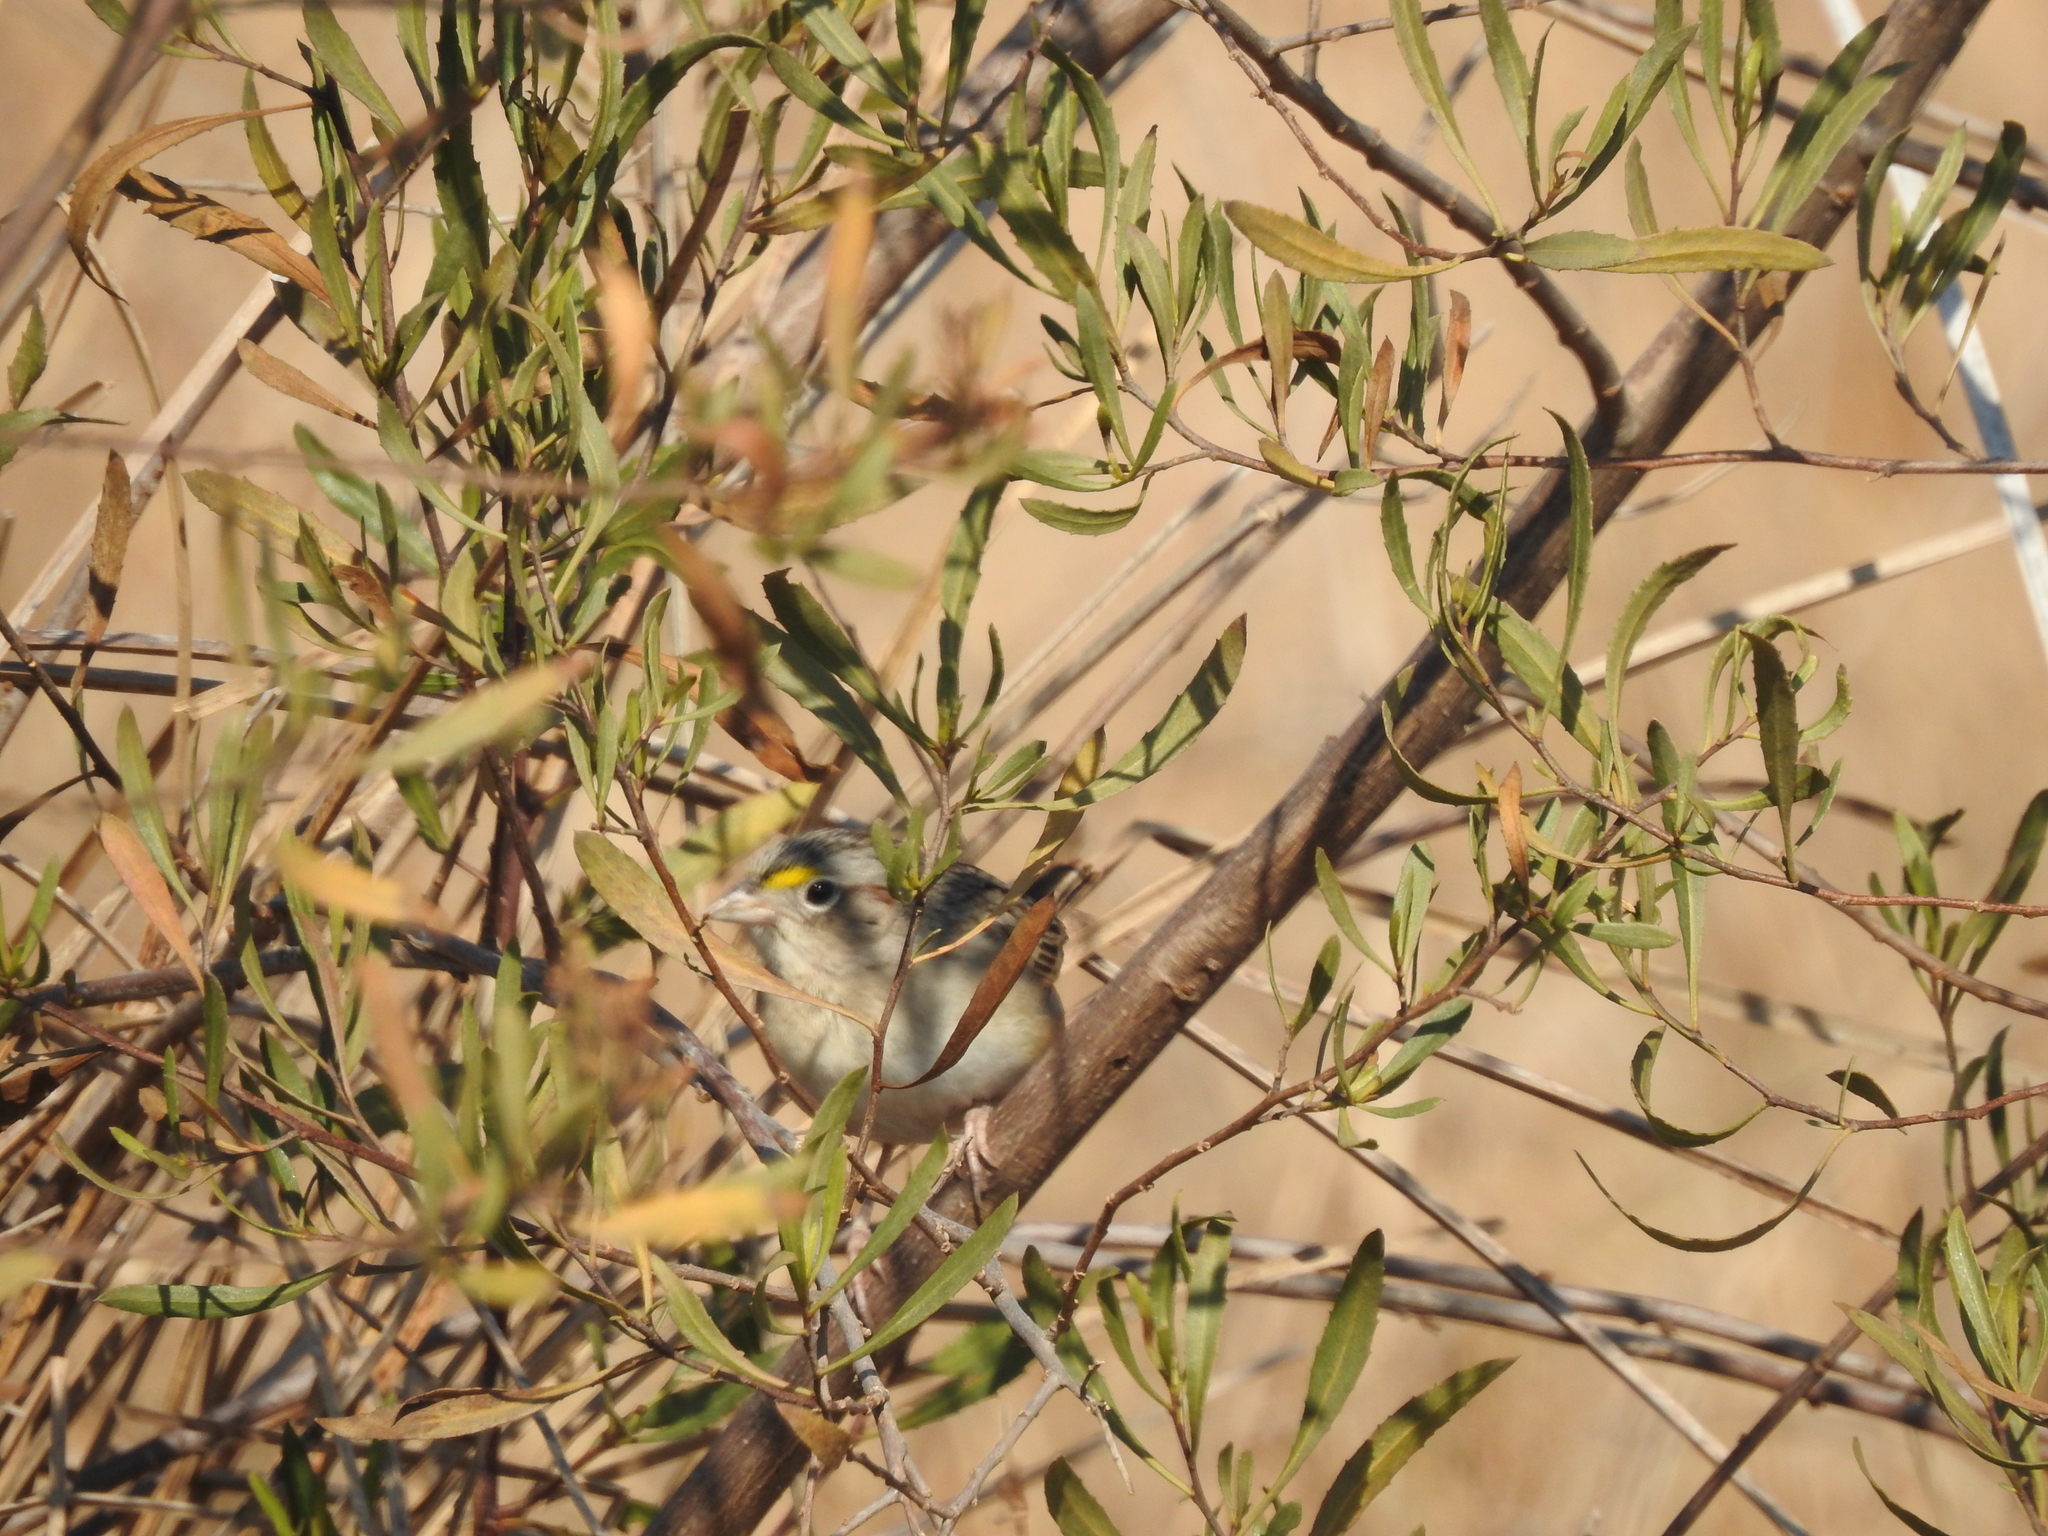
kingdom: Animalia
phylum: Chordata
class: Aves
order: Passeriformes
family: Passerellidae
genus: Ammodramus
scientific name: Ammodramus humeralis
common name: Grassland sparrow
